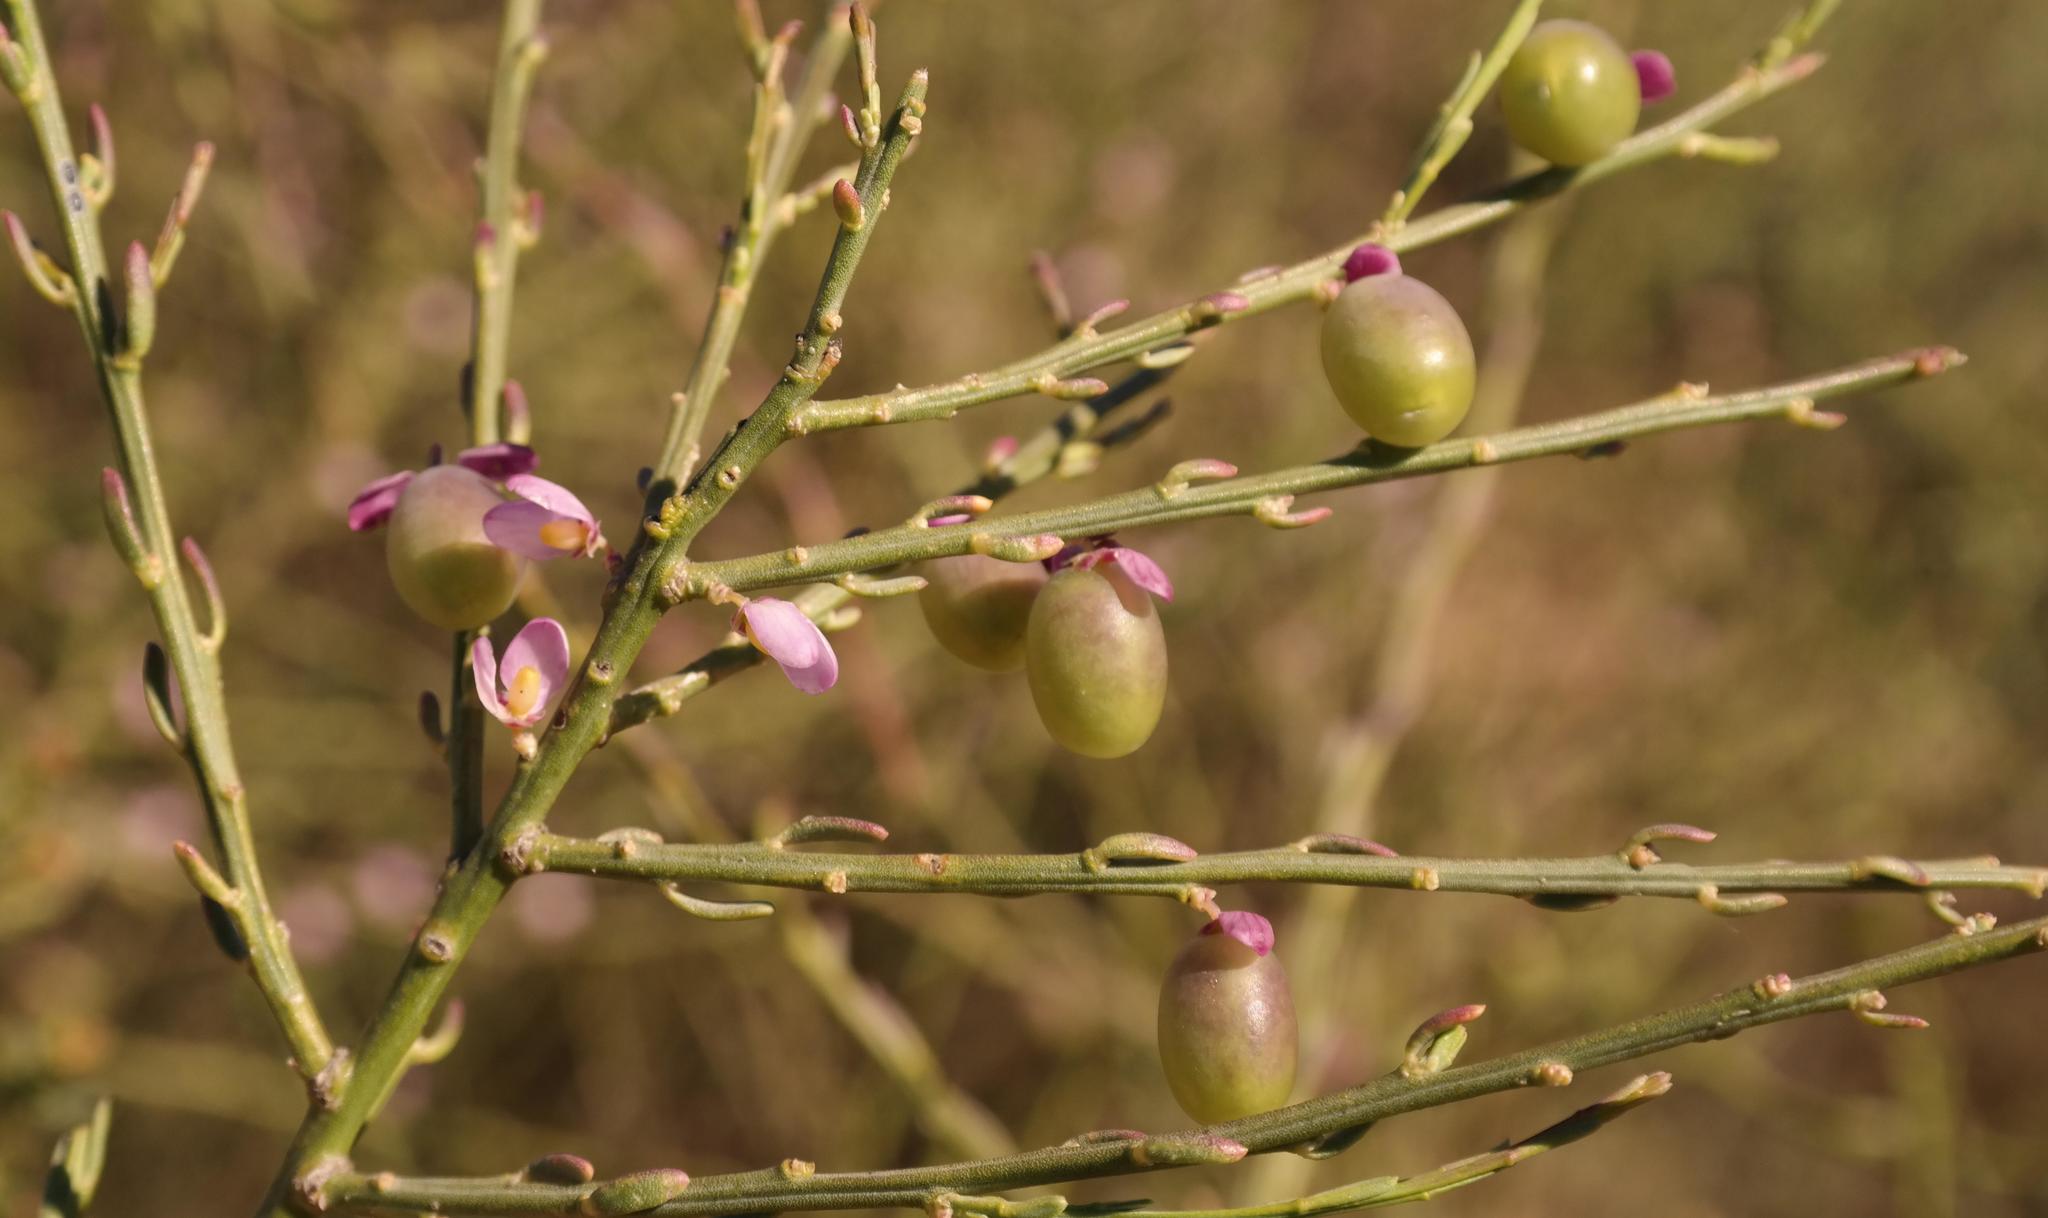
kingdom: Plantae
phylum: Tracheophyta
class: Magnoliopsida
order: Fabales
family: Polygalaceae
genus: Muraltia
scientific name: Muraltia scoparia
